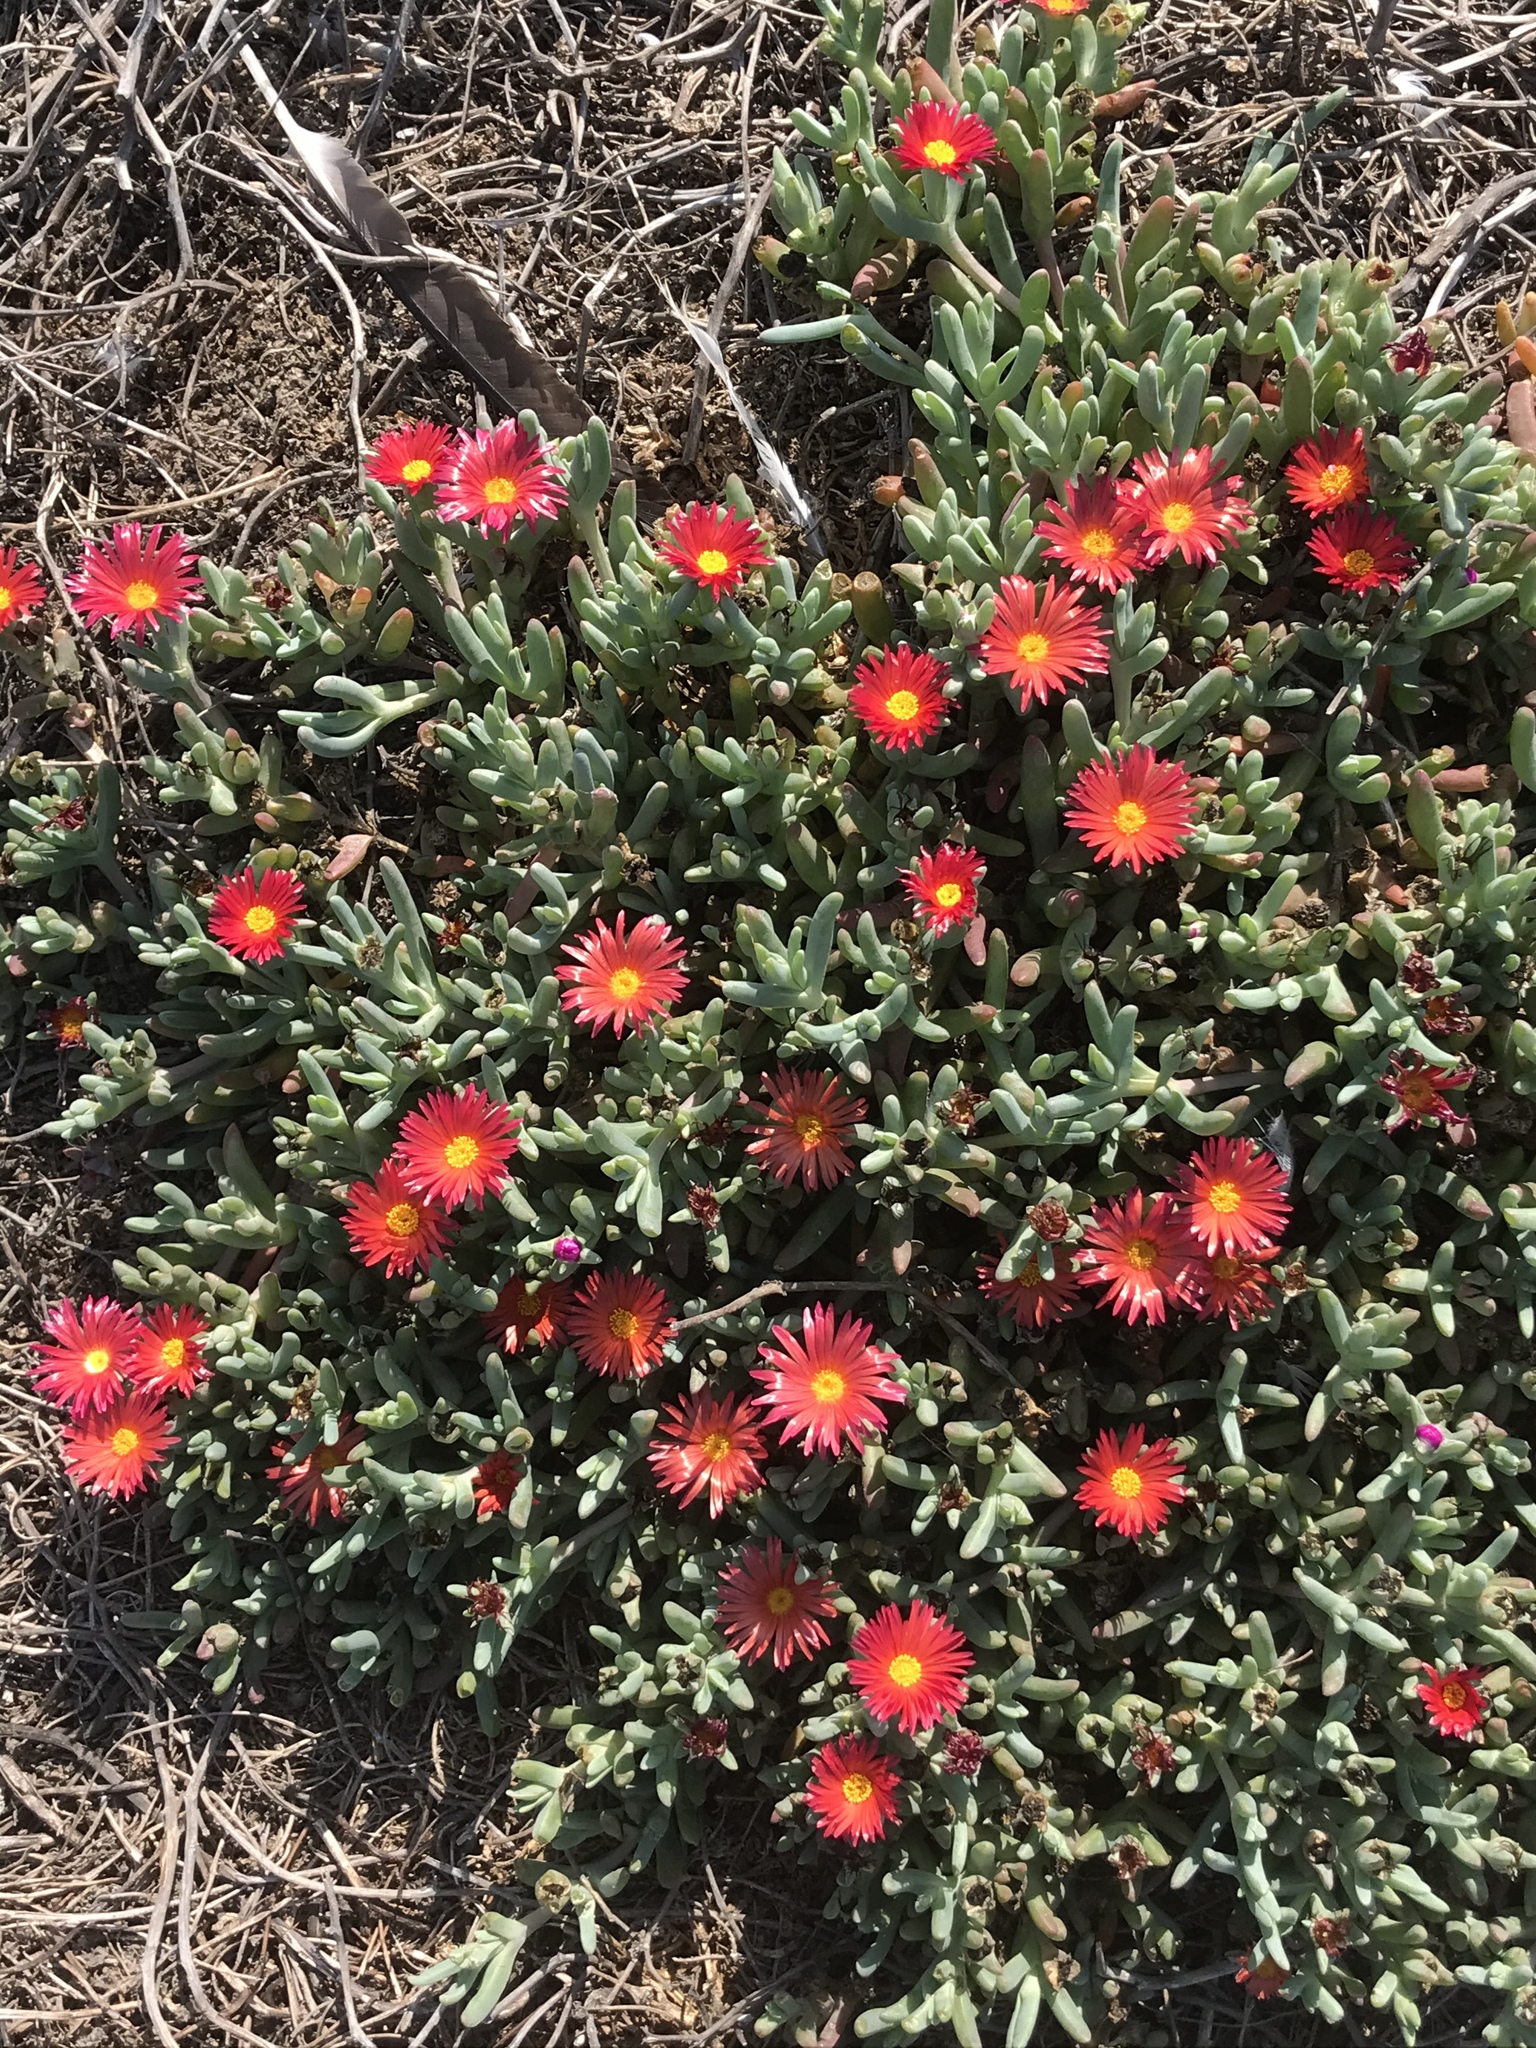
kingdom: Plantae
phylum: Tracheophyta
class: Magnoliopsida
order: Caryophyllales
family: Aizoaceae
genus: Malephora
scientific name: Malephora crocea
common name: Coppery mesemb
